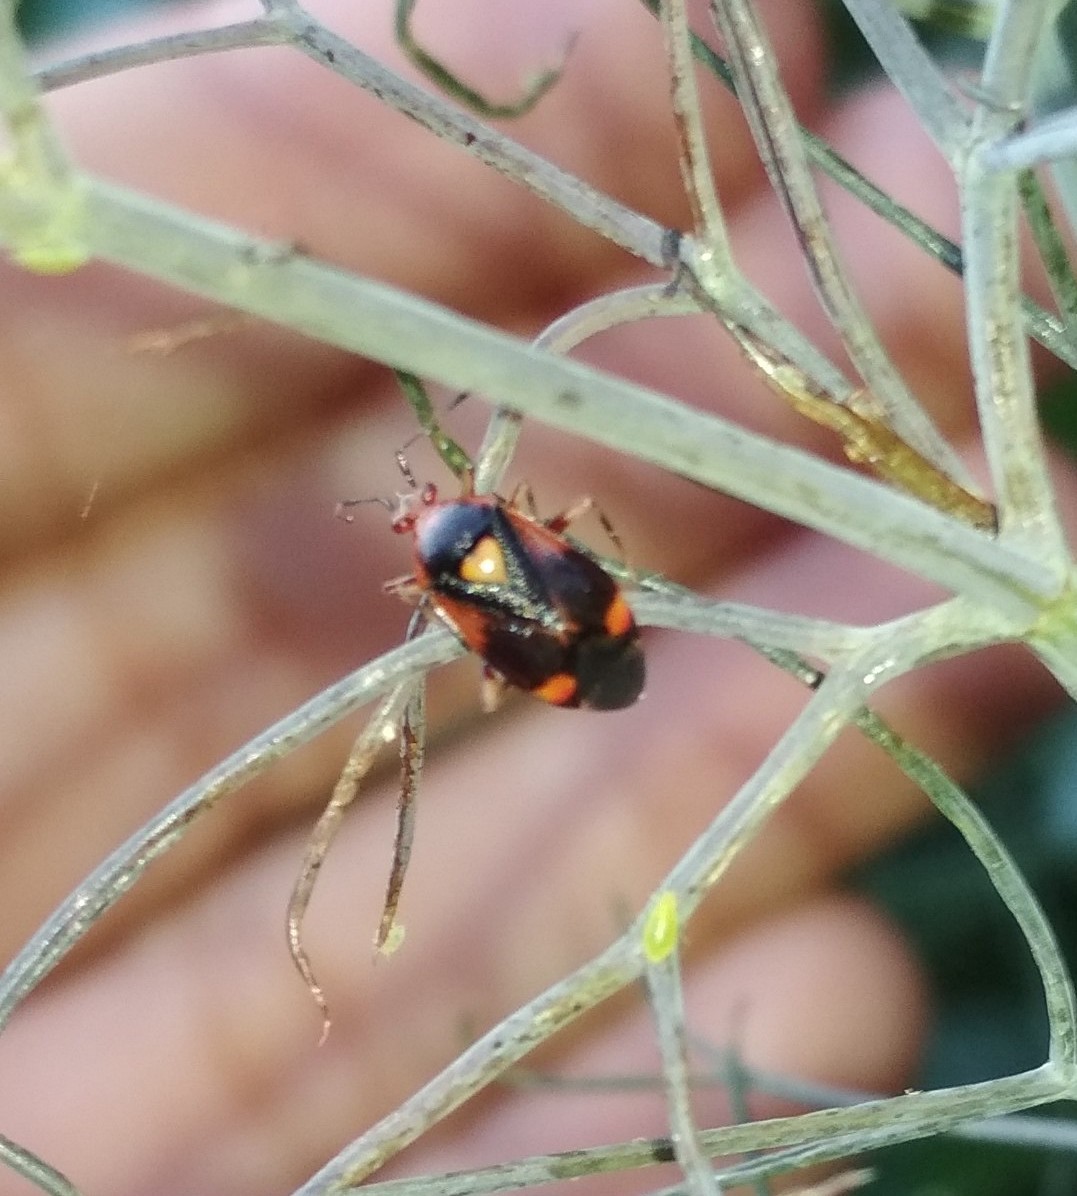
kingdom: Animalia
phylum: Arthropoda
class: Insecta
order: Hemiptera
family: Miridae
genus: Deraeocoris
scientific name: Deraeocoris ruber
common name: Plant bug
